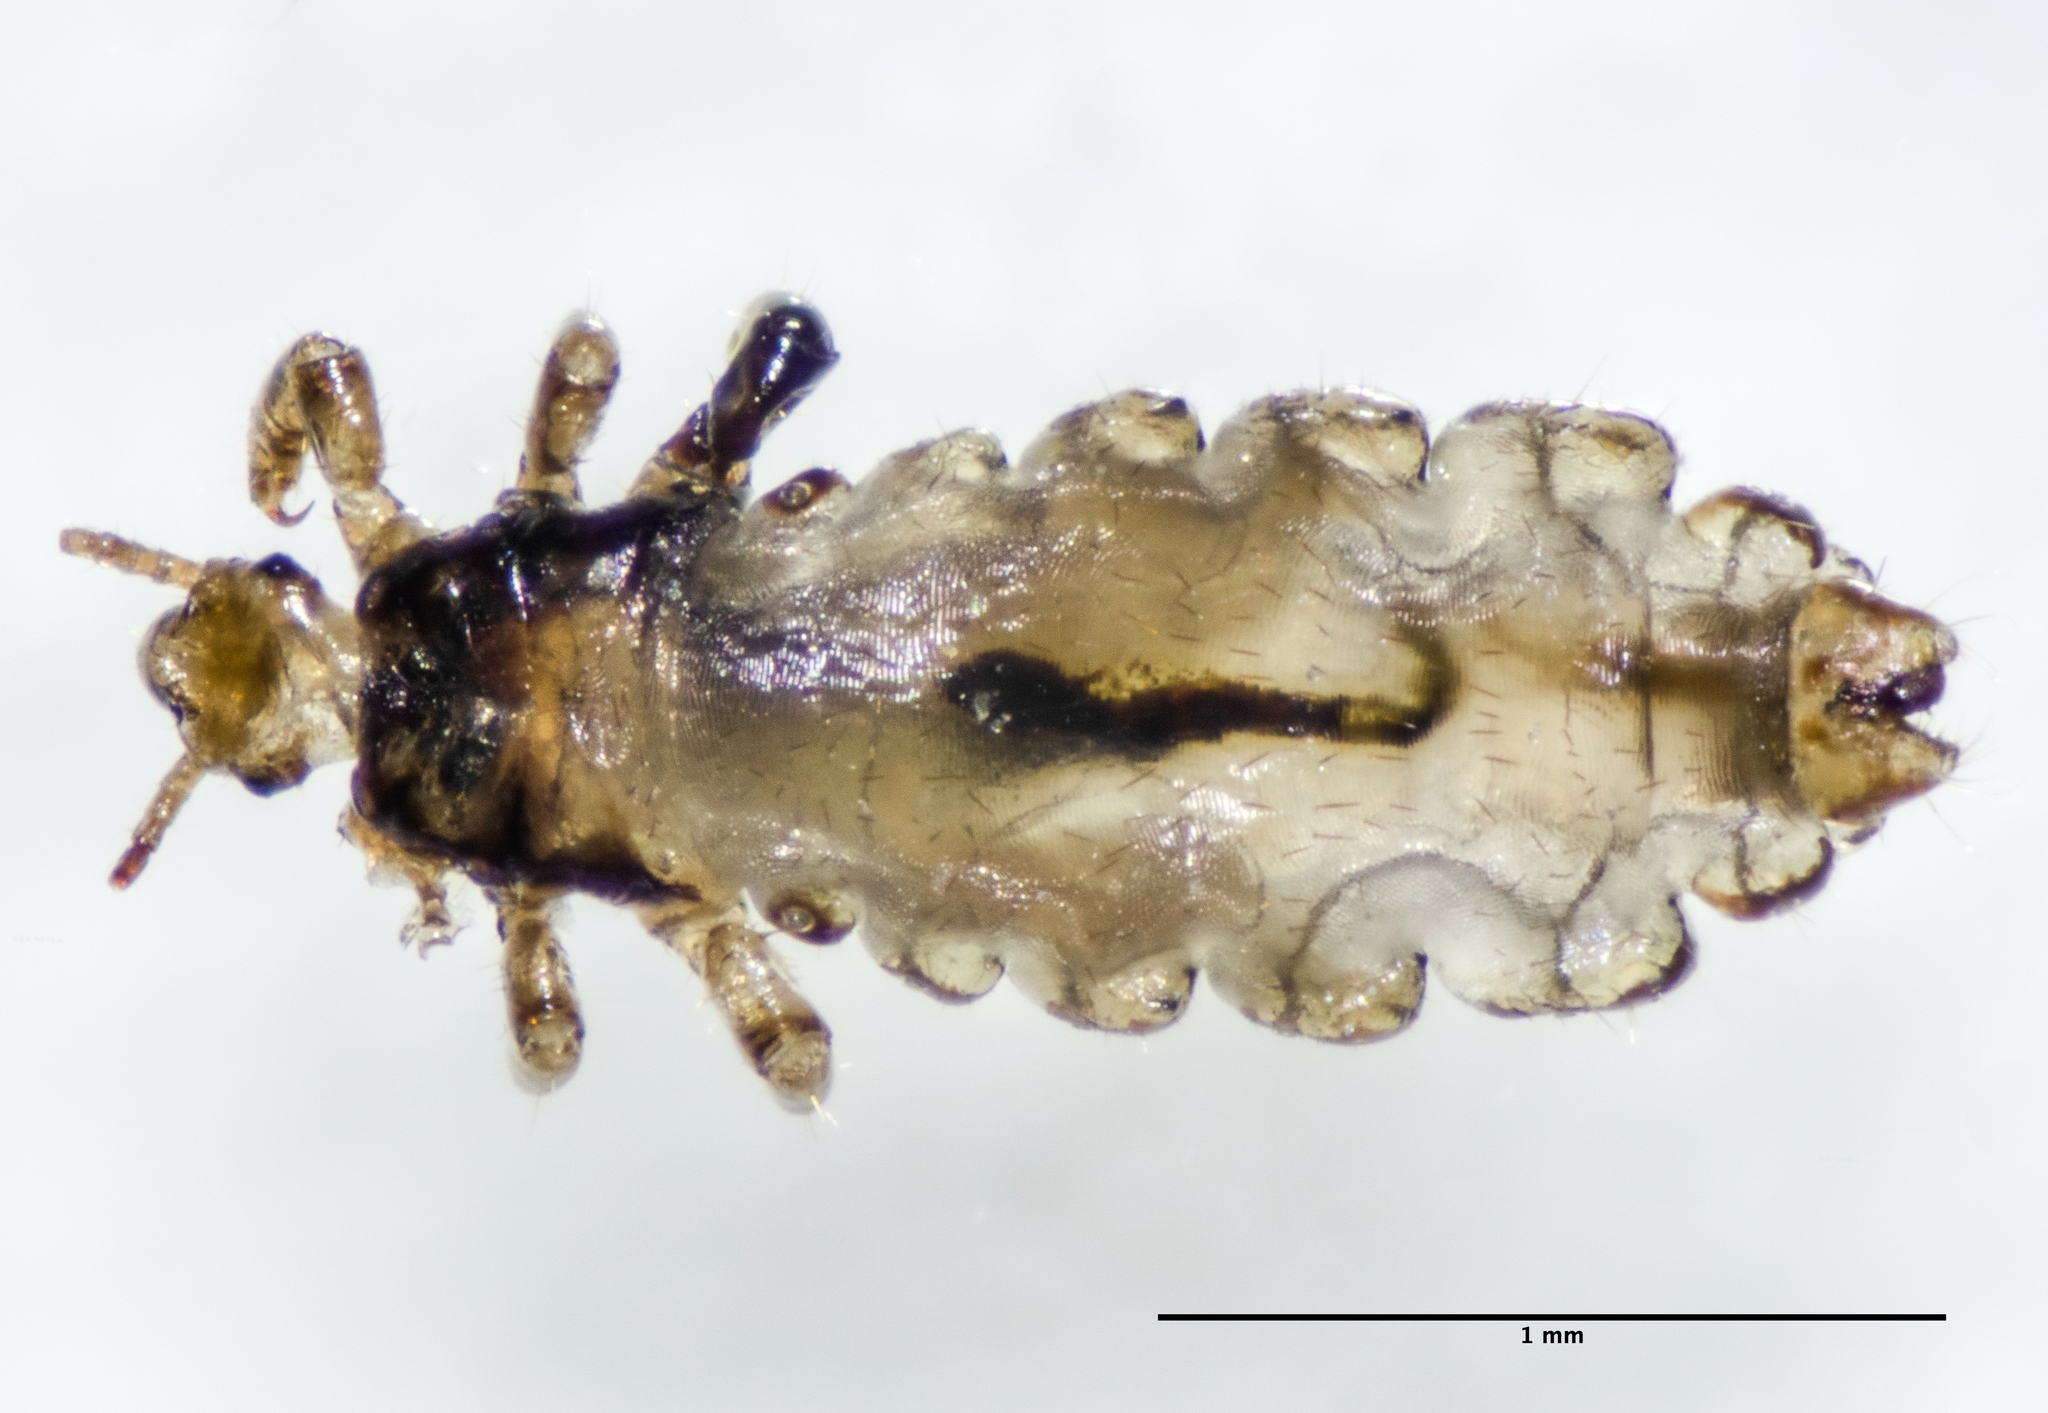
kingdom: Animalia
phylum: Arthropoda
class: Insecta
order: Psocodea
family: Pediculidae
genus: Pediculus
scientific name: Pediculus humanus
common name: Body louse
